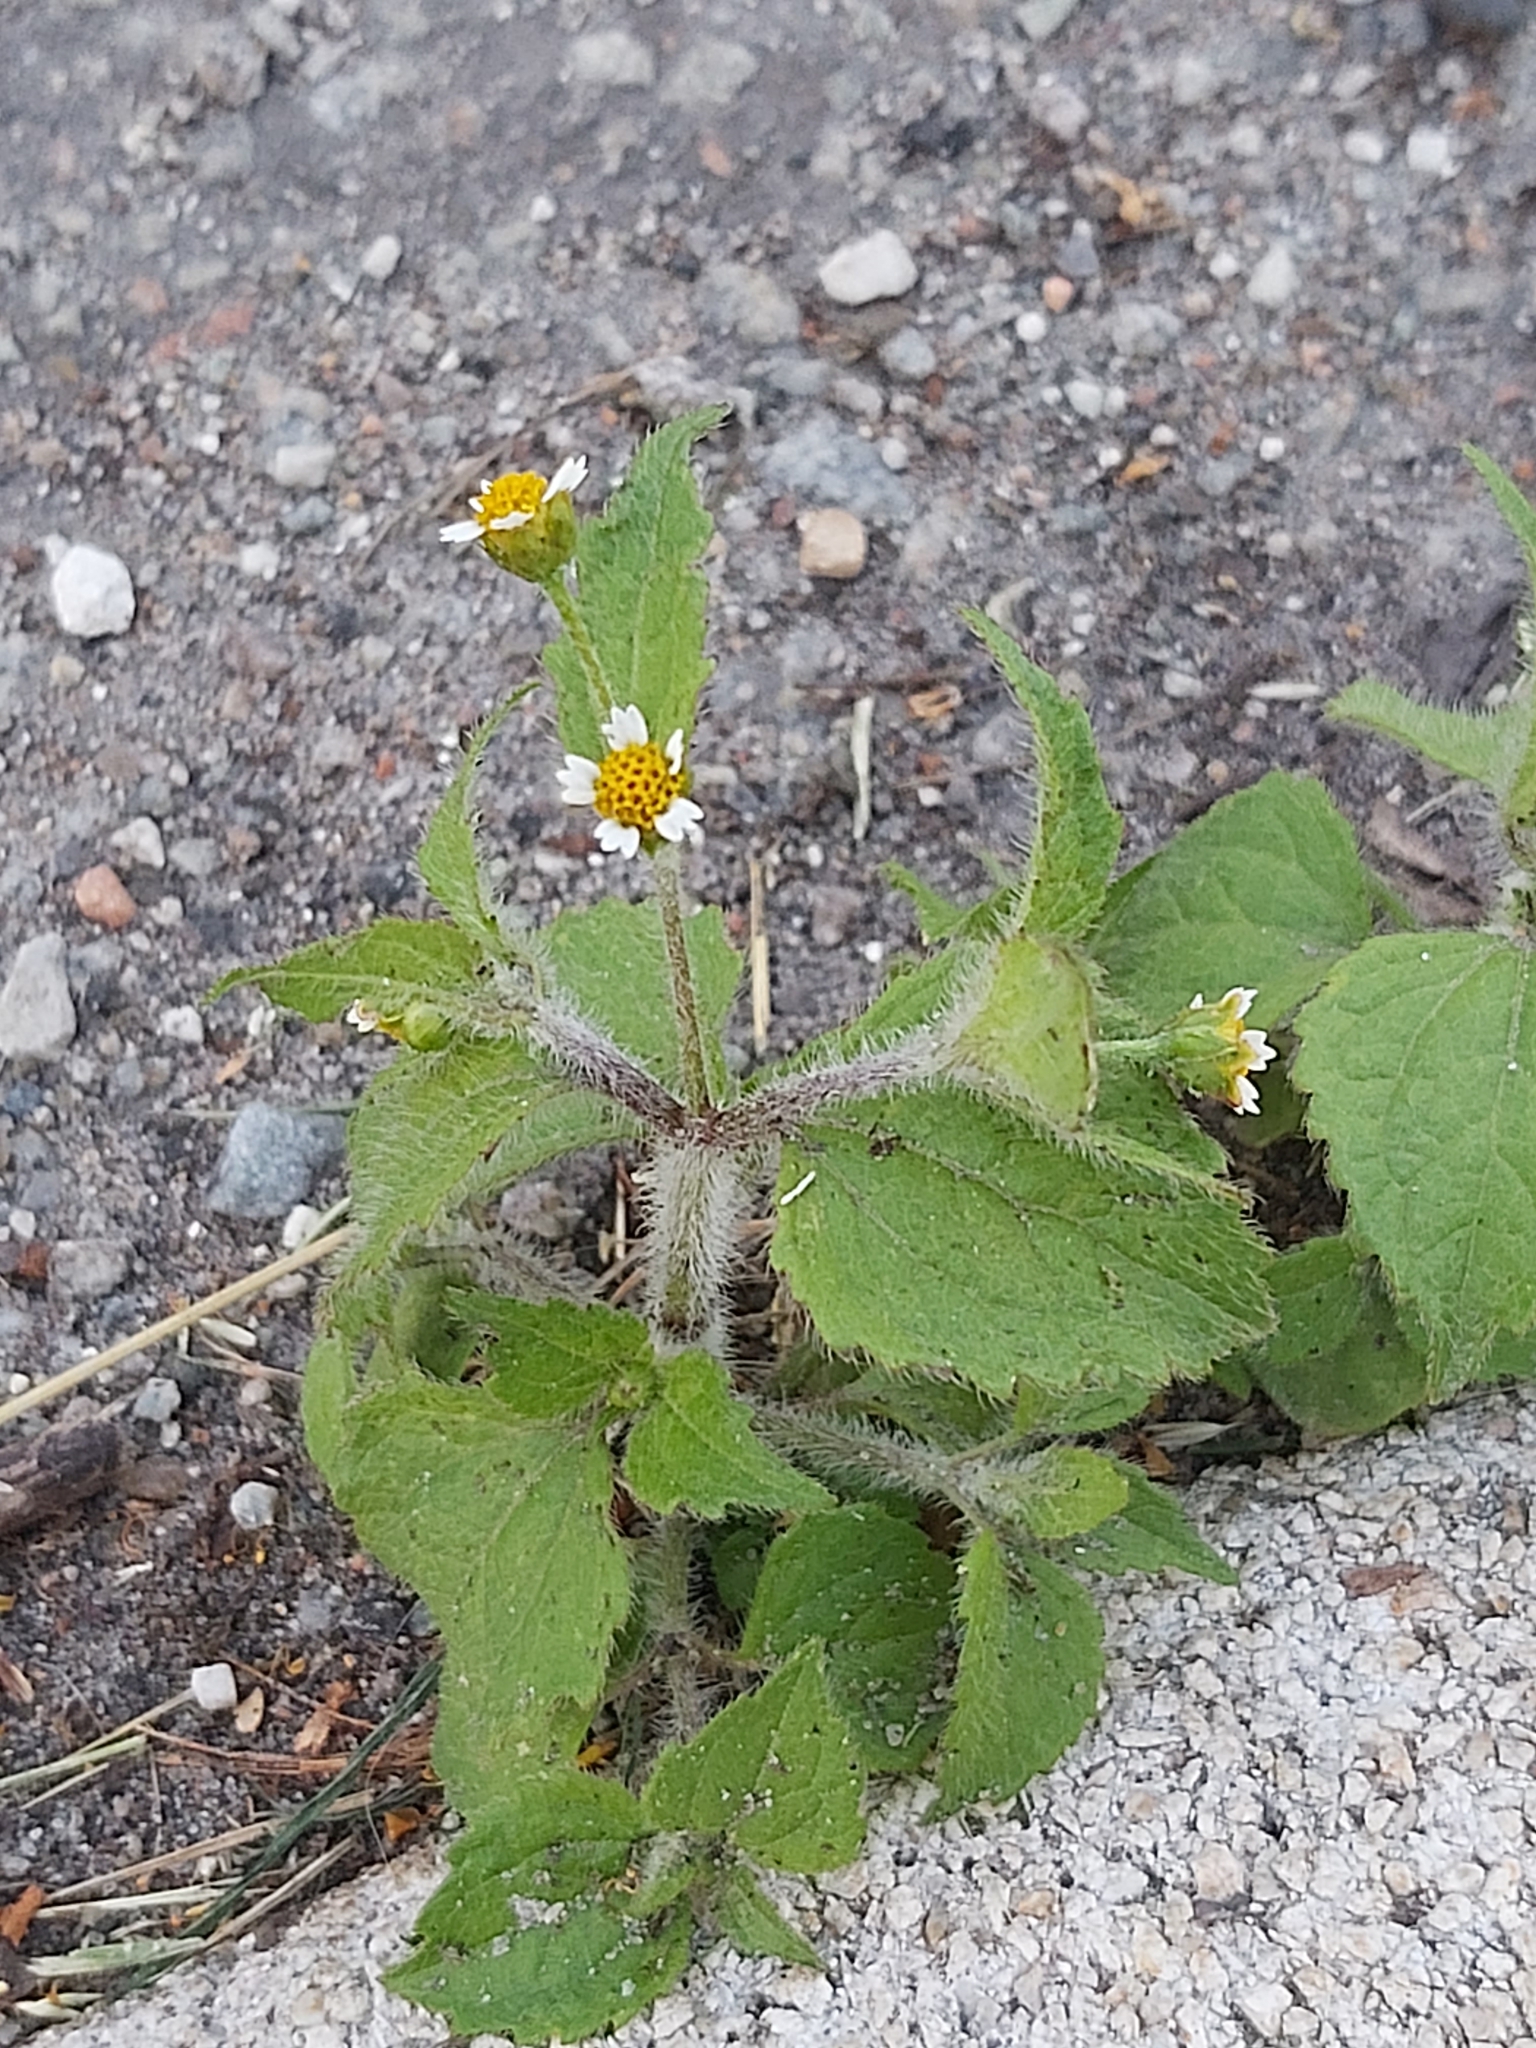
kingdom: Plantae
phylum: Tracheophyta
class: Magnoliopsida
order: Asterales
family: Asteraceae
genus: Galinsoga
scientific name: Galinsoga quadriradiata
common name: Shaggy soldier
